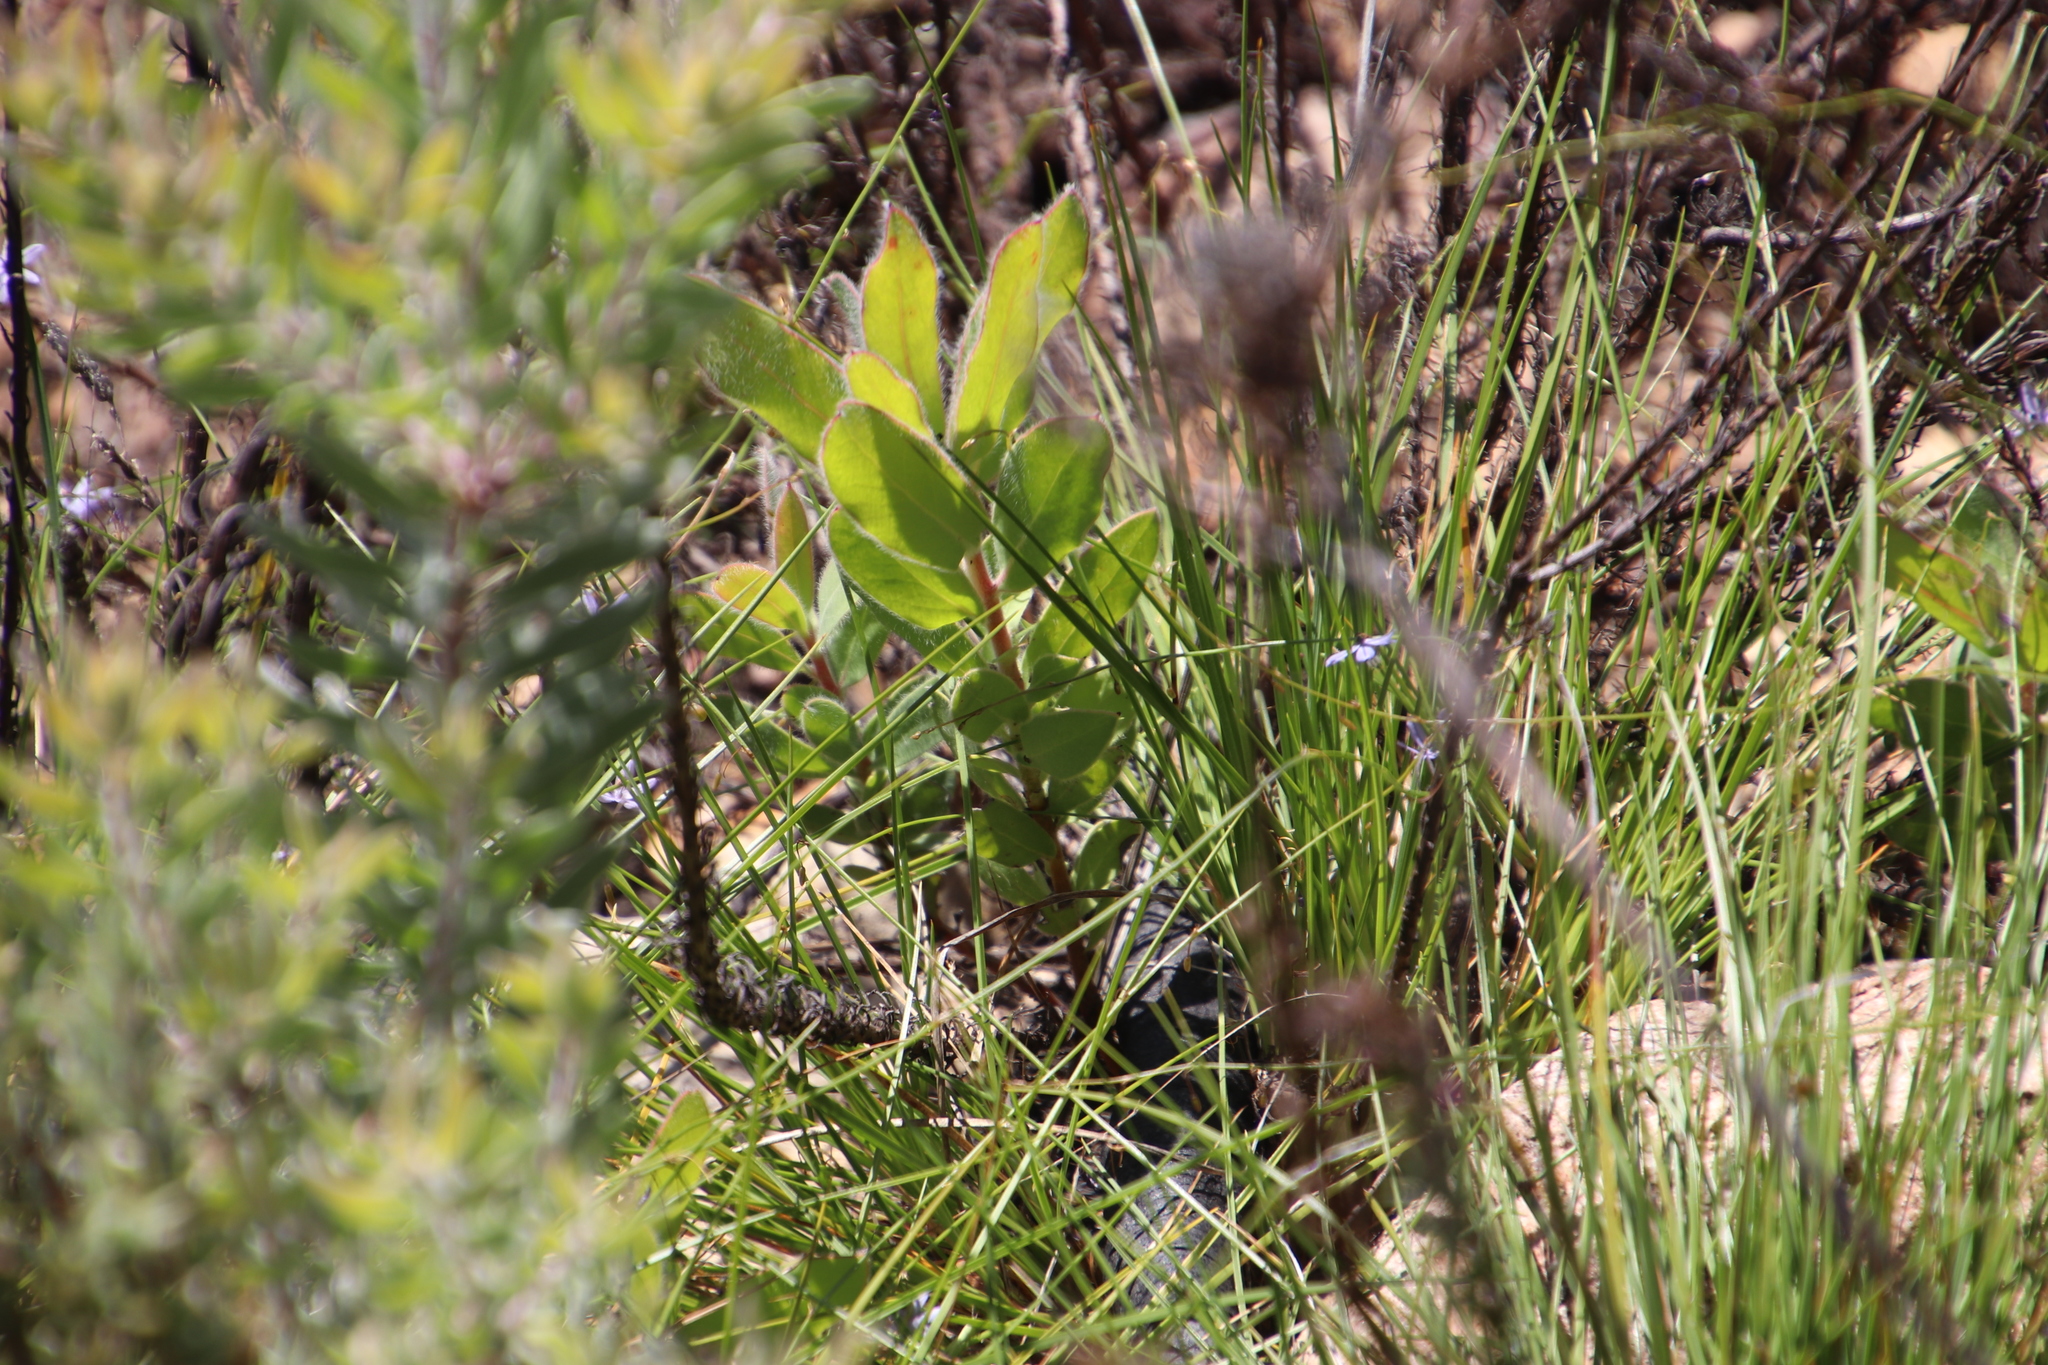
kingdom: Plantae
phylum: Tracheophyta
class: Magnoliopsida
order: Proteales
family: Proteaceae
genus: Protea
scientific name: Protea laurifolia
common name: Grey-leaf sugarbsh
